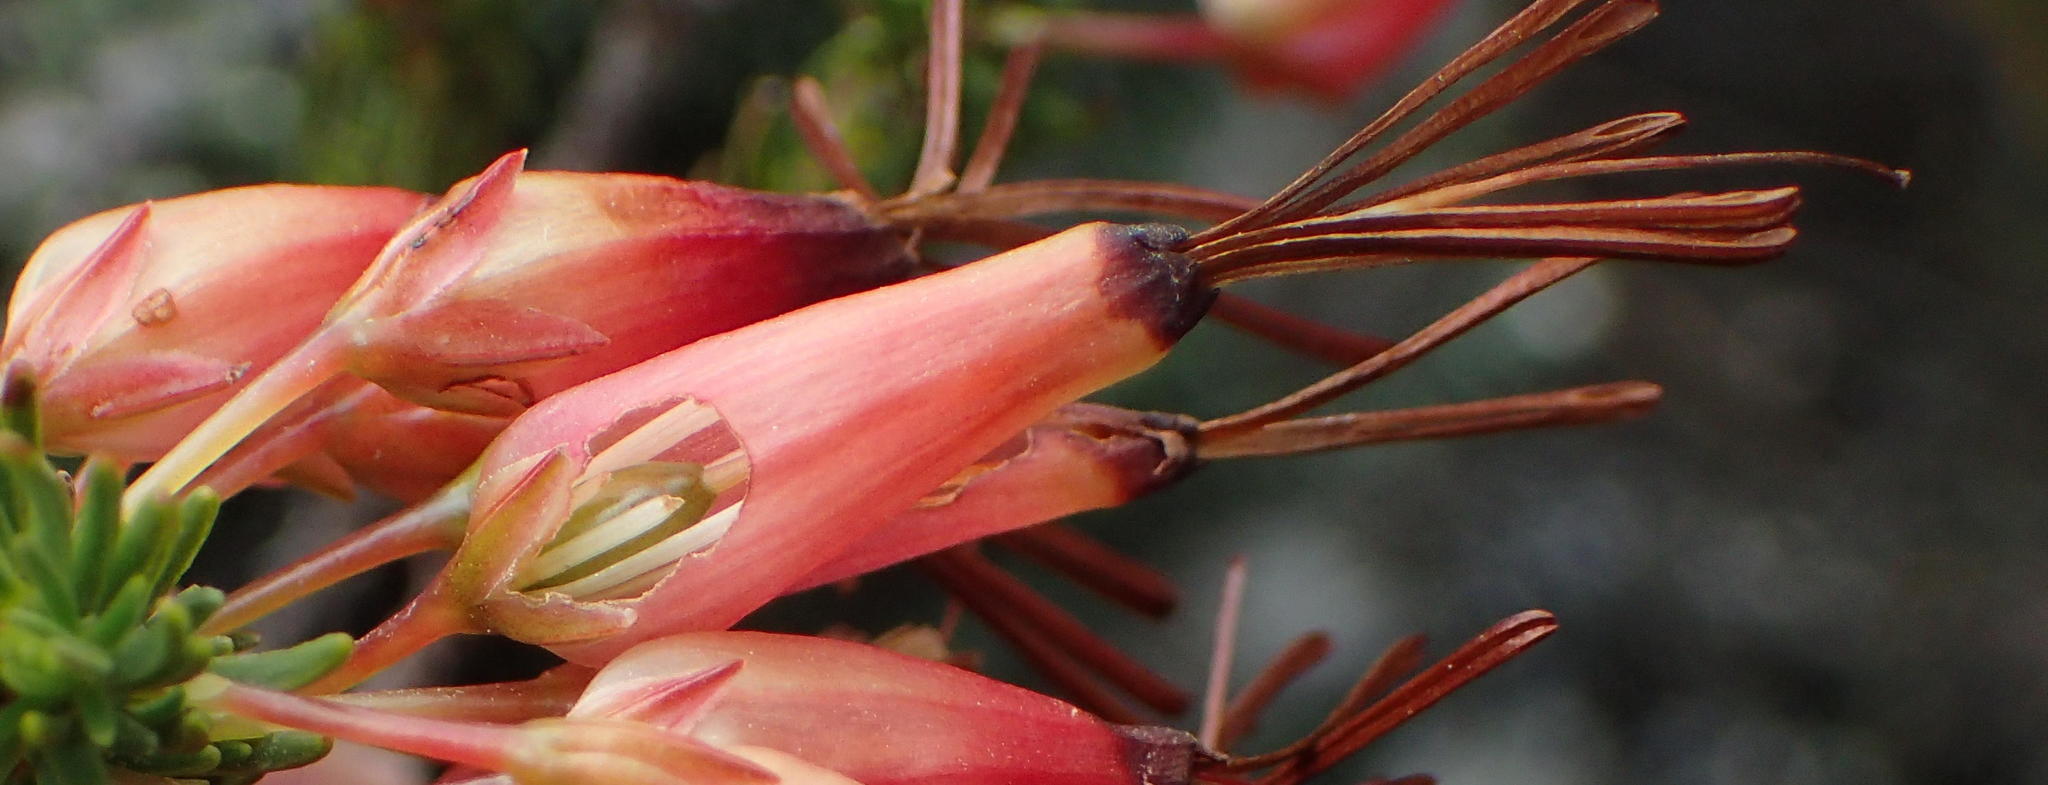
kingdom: Plantae
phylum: Tracheophyta
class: Magnoliopsida
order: Ericales
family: Ericaceae
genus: Erica
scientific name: Erica plukenetii
